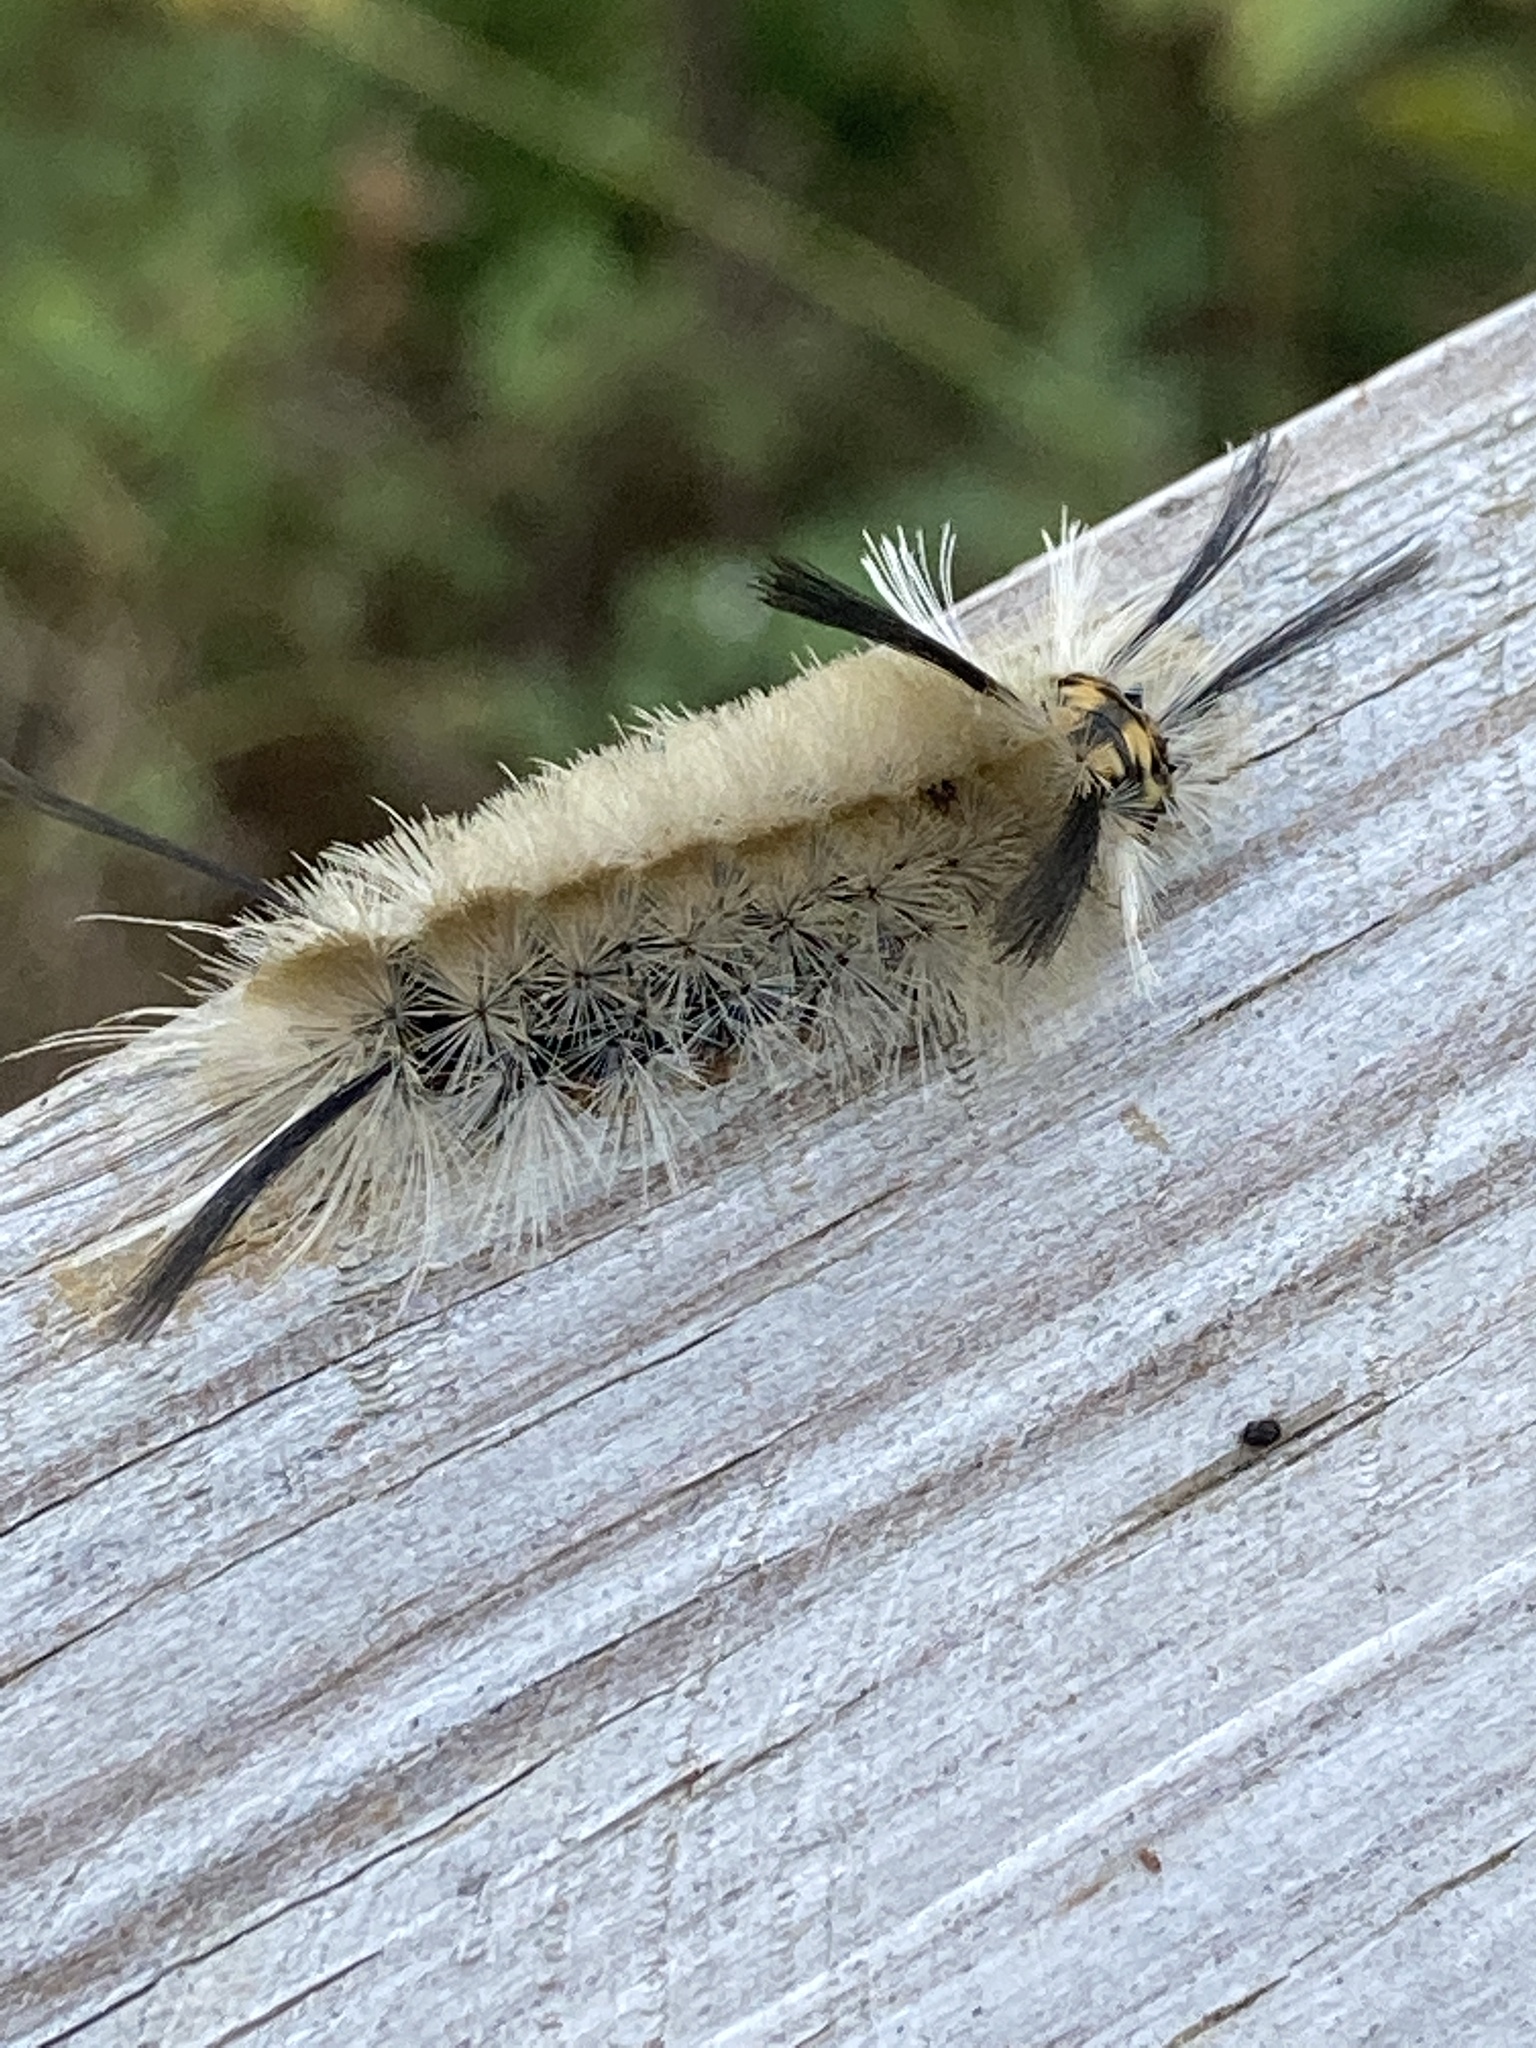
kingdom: Animalia
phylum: Arthropoda
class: Insecta
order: Lepidoptera
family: Erebidae
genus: Halysidota
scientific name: Halysidota tessellaris
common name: Banded tussock moth
